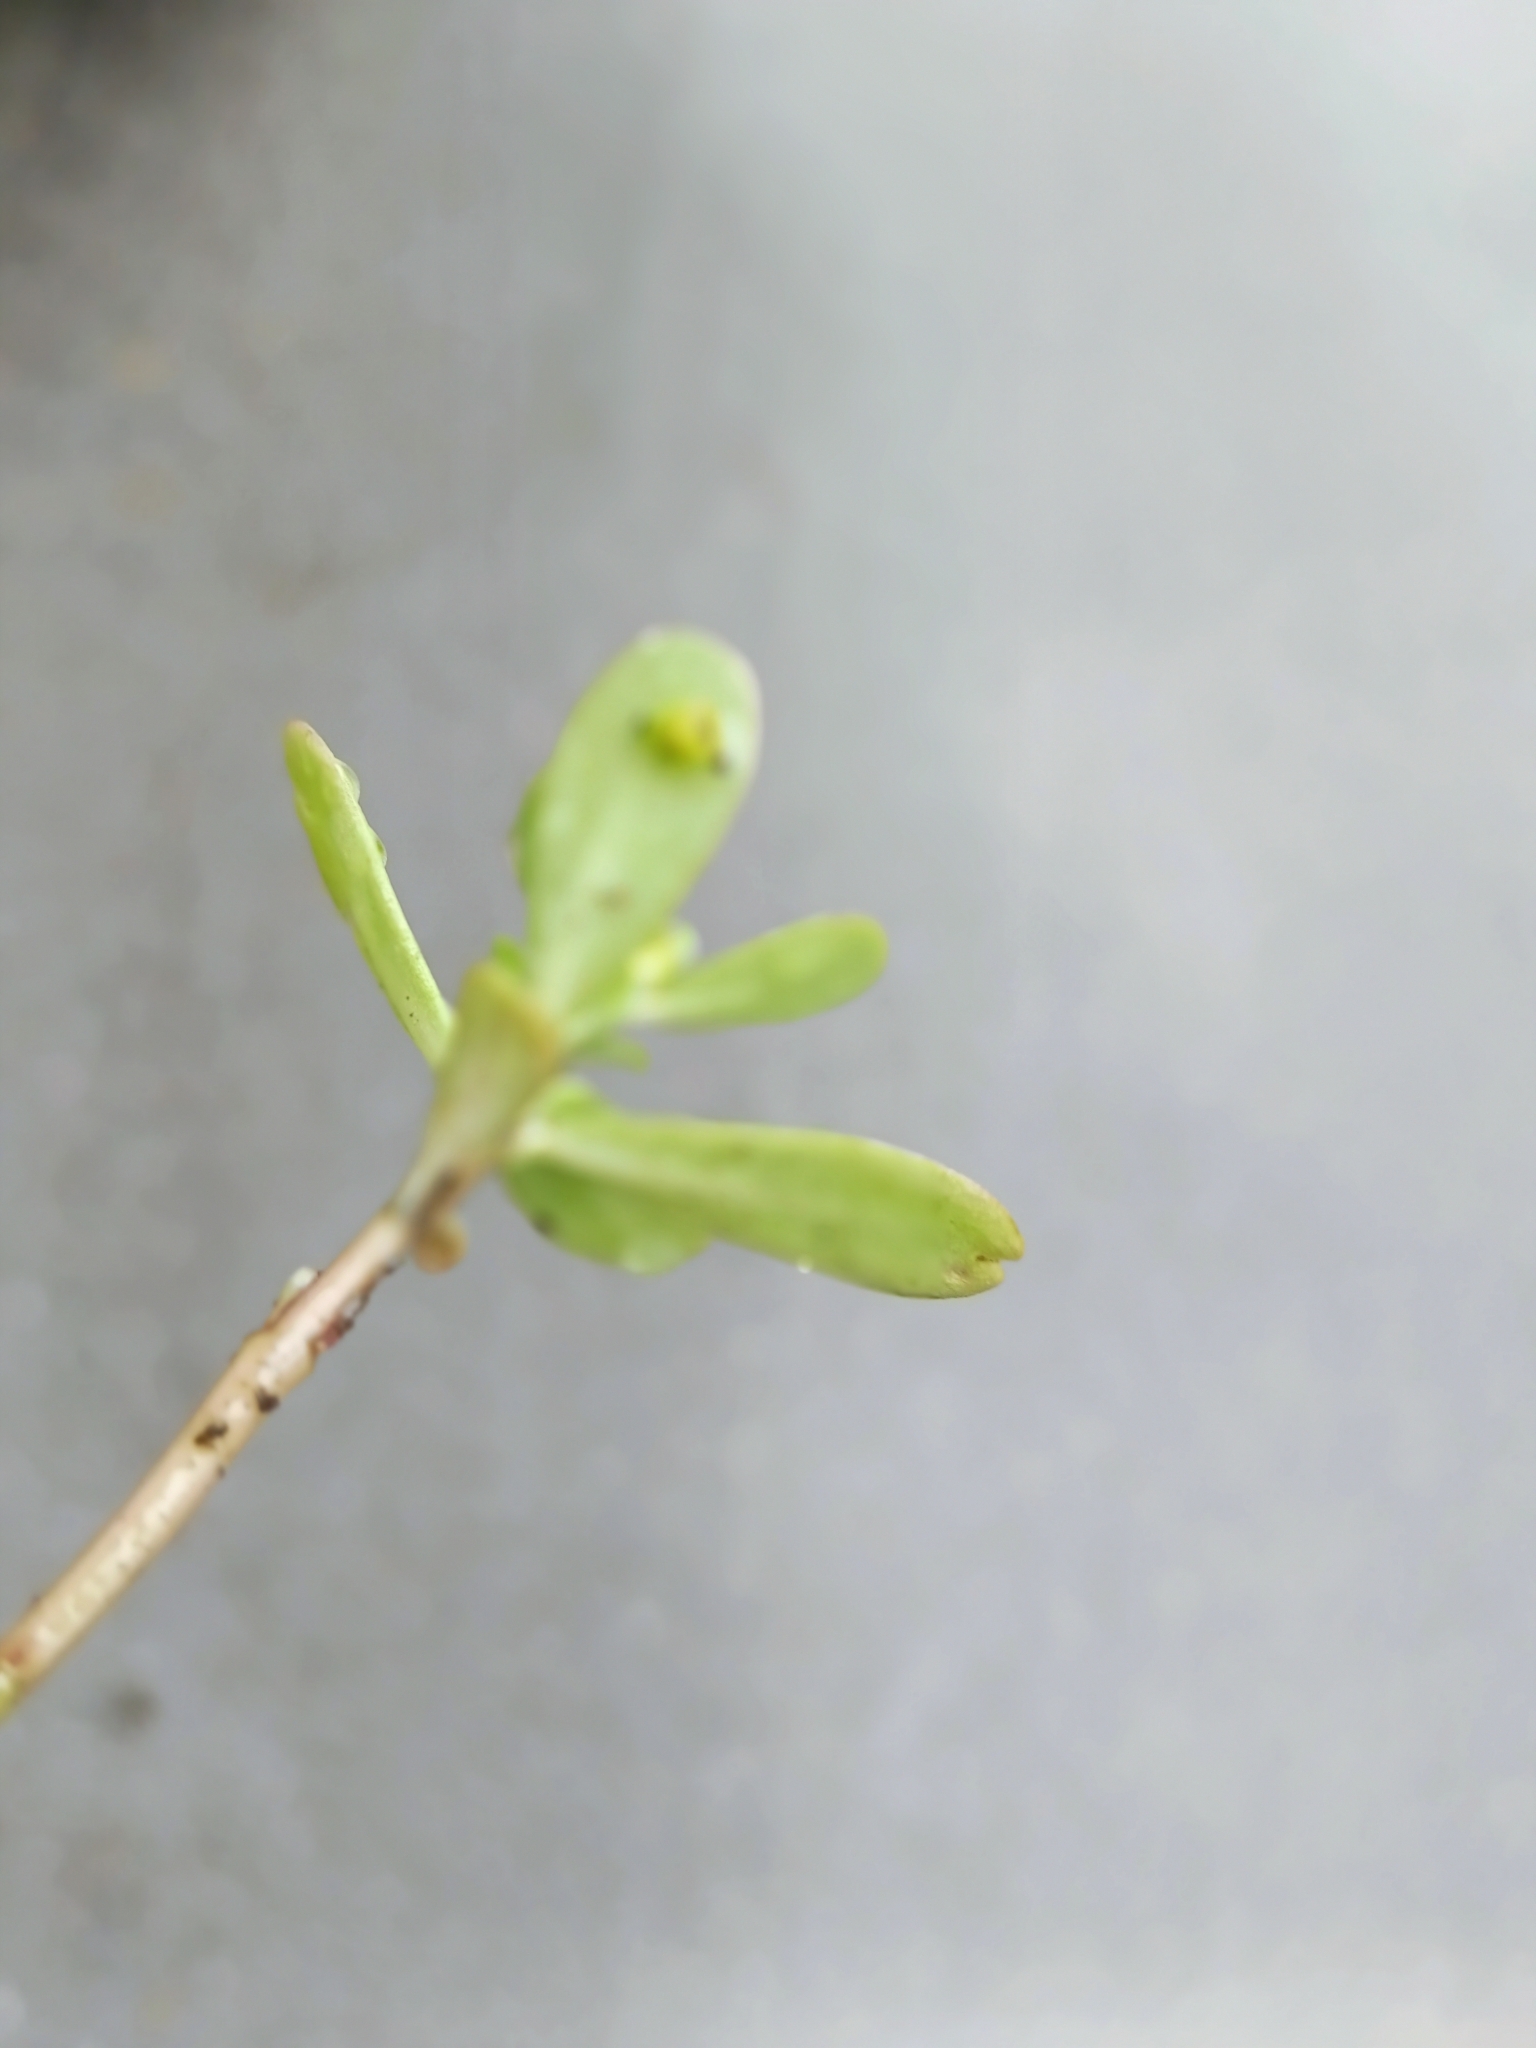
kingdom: Plantae
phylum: Tracheophyta
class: Magnoliopsida
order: Caryophyllales
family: Portulacaceae
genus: Portulaca
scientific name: Portulaca oleracea
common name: Common purslane
